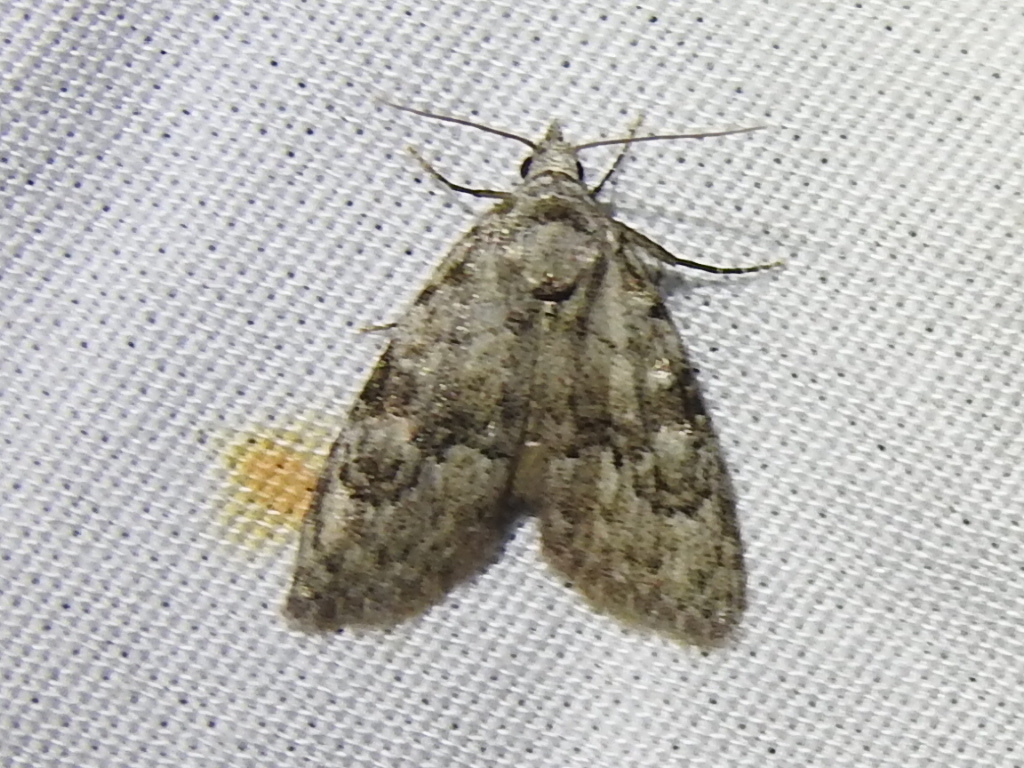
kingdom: Animalia
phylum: Arthropoda
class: Insecta
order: Lepidoptera
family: Nolidae
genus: Meganola
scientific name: Meganola minuscula
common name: Confused meganola moth
